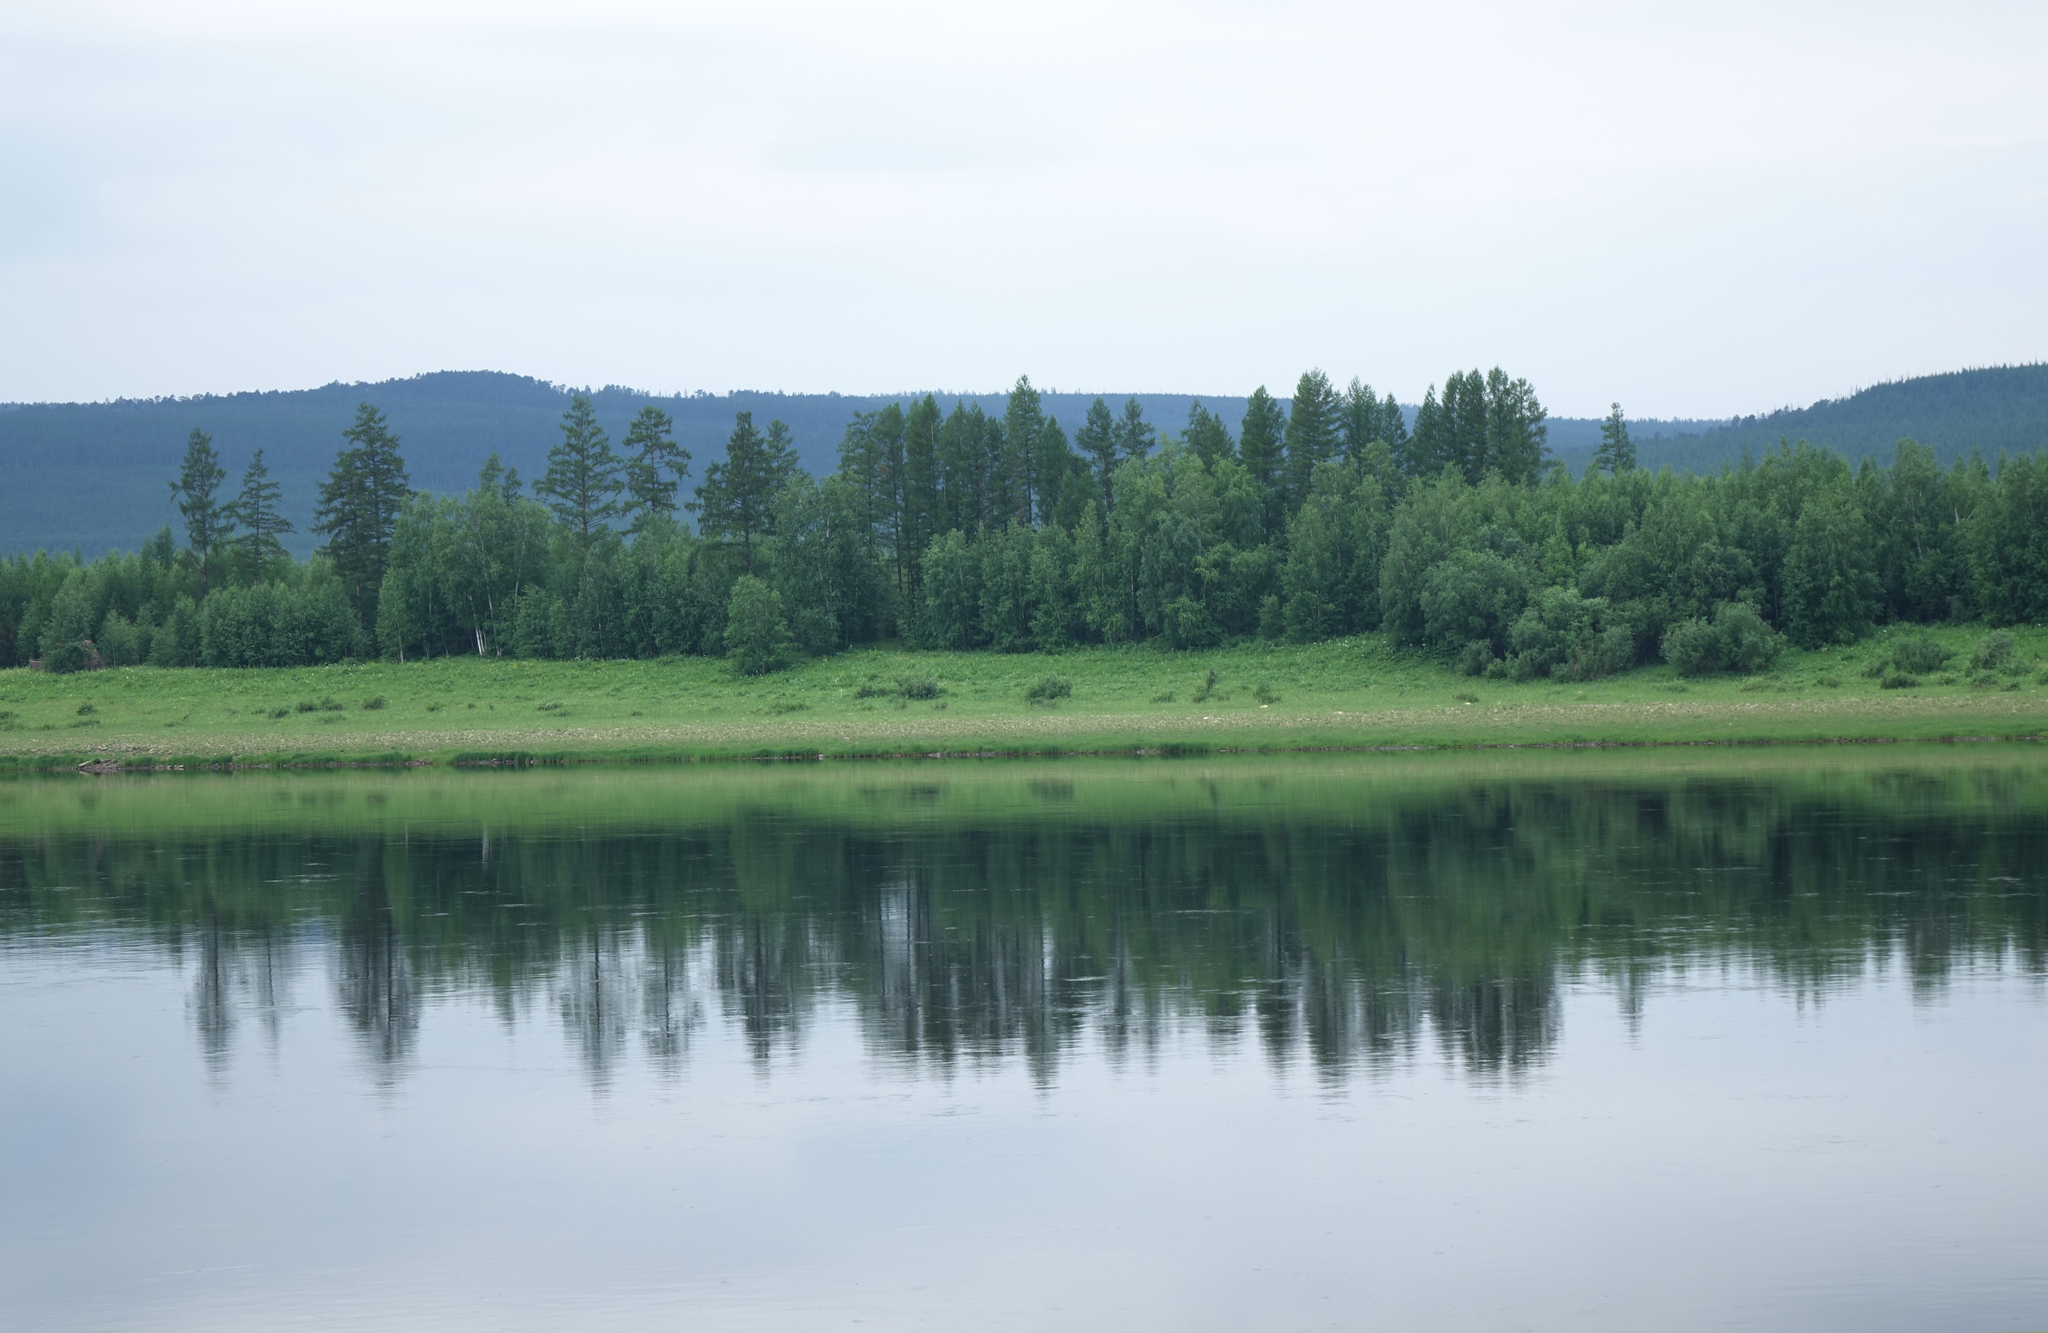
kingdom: Plantae
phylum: Tracheophyta
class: Pinopsida
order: Pinales
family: Pinaceae
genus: Larix
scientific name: Larix gmelinii
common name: Dahurian larch
